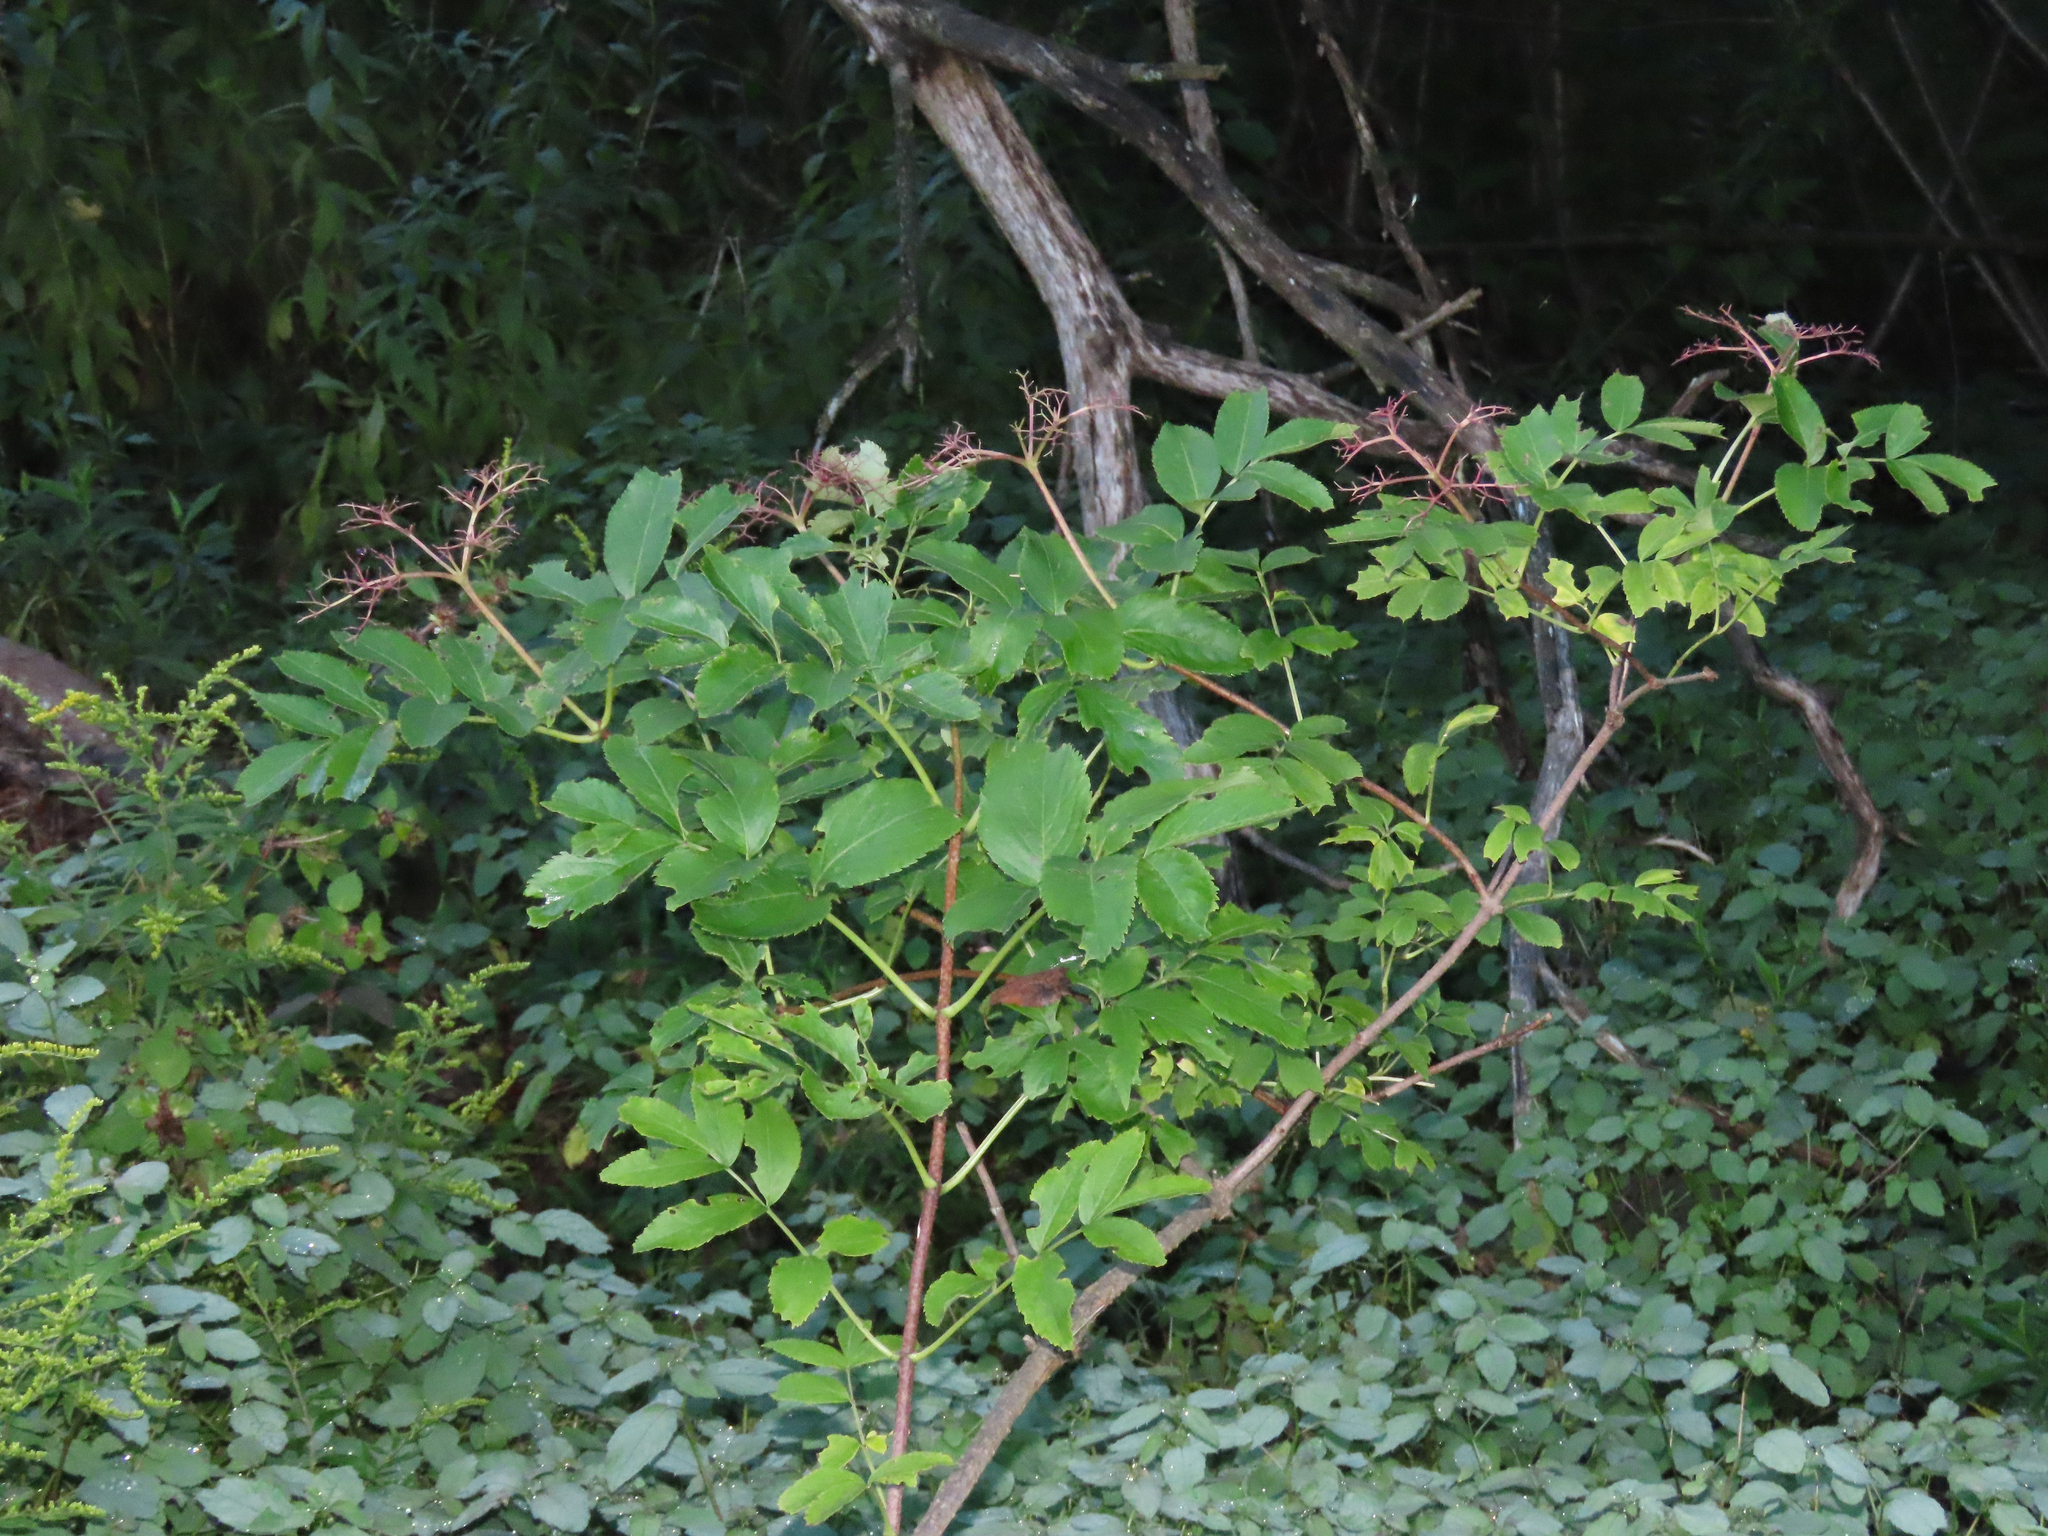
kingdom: Plantae
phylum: Tracheophyta
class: Magnoliopsida
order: Dipsacales
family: Viburnaceae
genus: Sambucus
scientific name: Sambucus canadensis
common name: American elder
